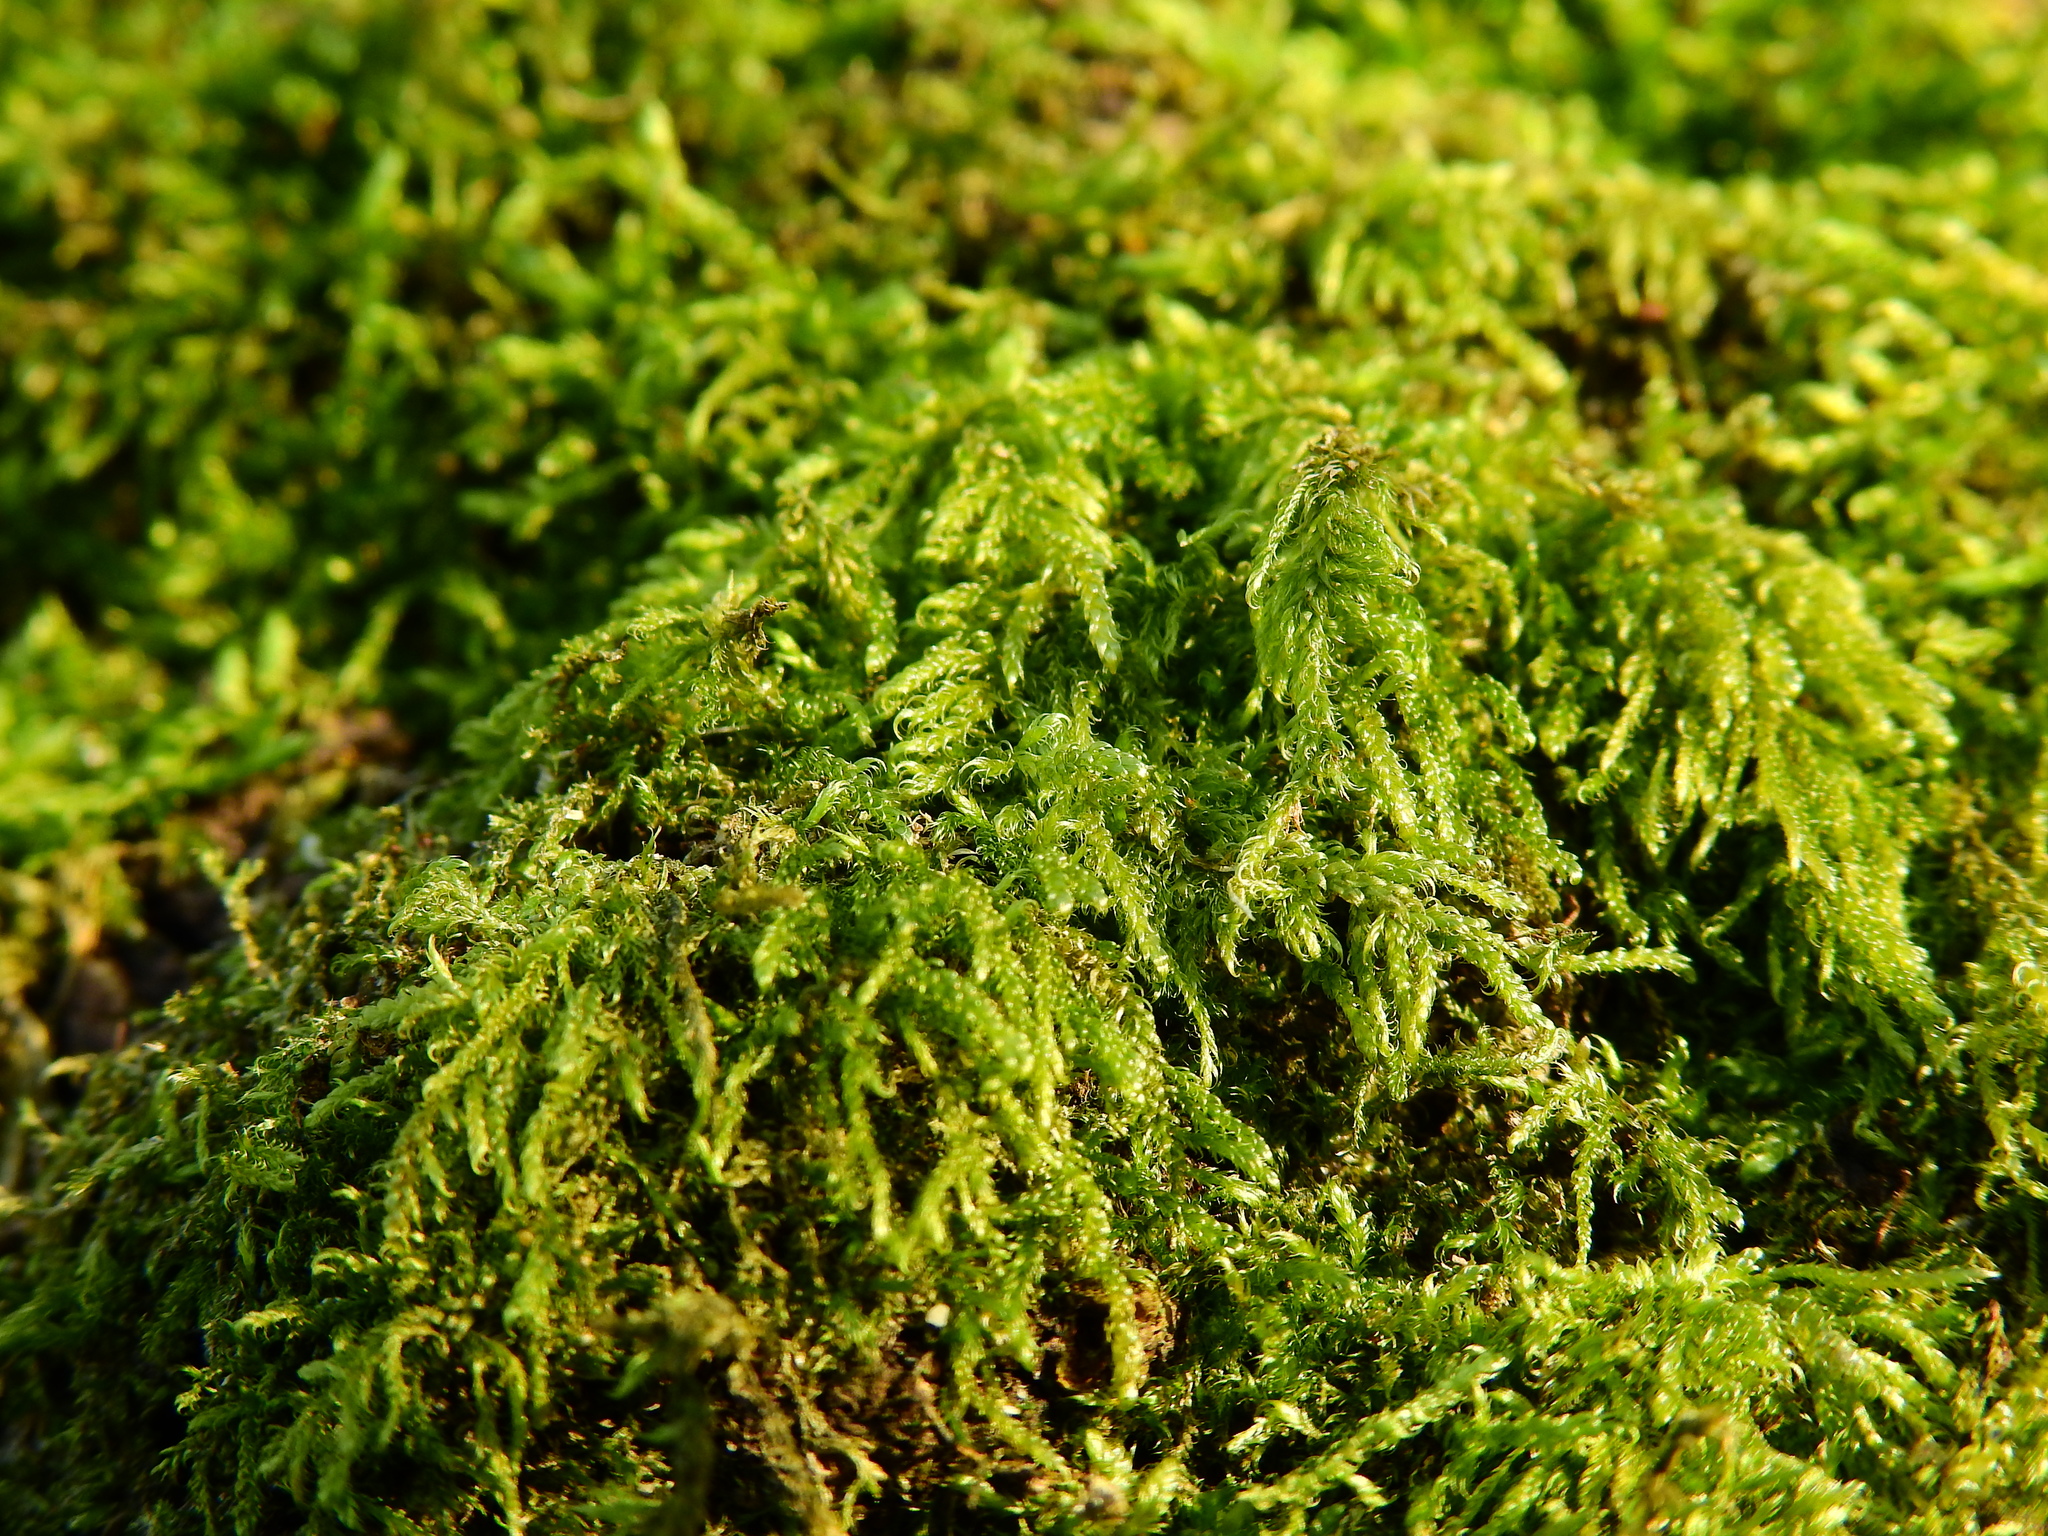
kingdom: Plantae
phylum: Bryophyta
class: Bryopsida
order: Hypnales
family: Hypnaceae
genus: Hypnum
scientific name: Hypnum cupressiforme
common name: Cypress-leaved plait-moss
